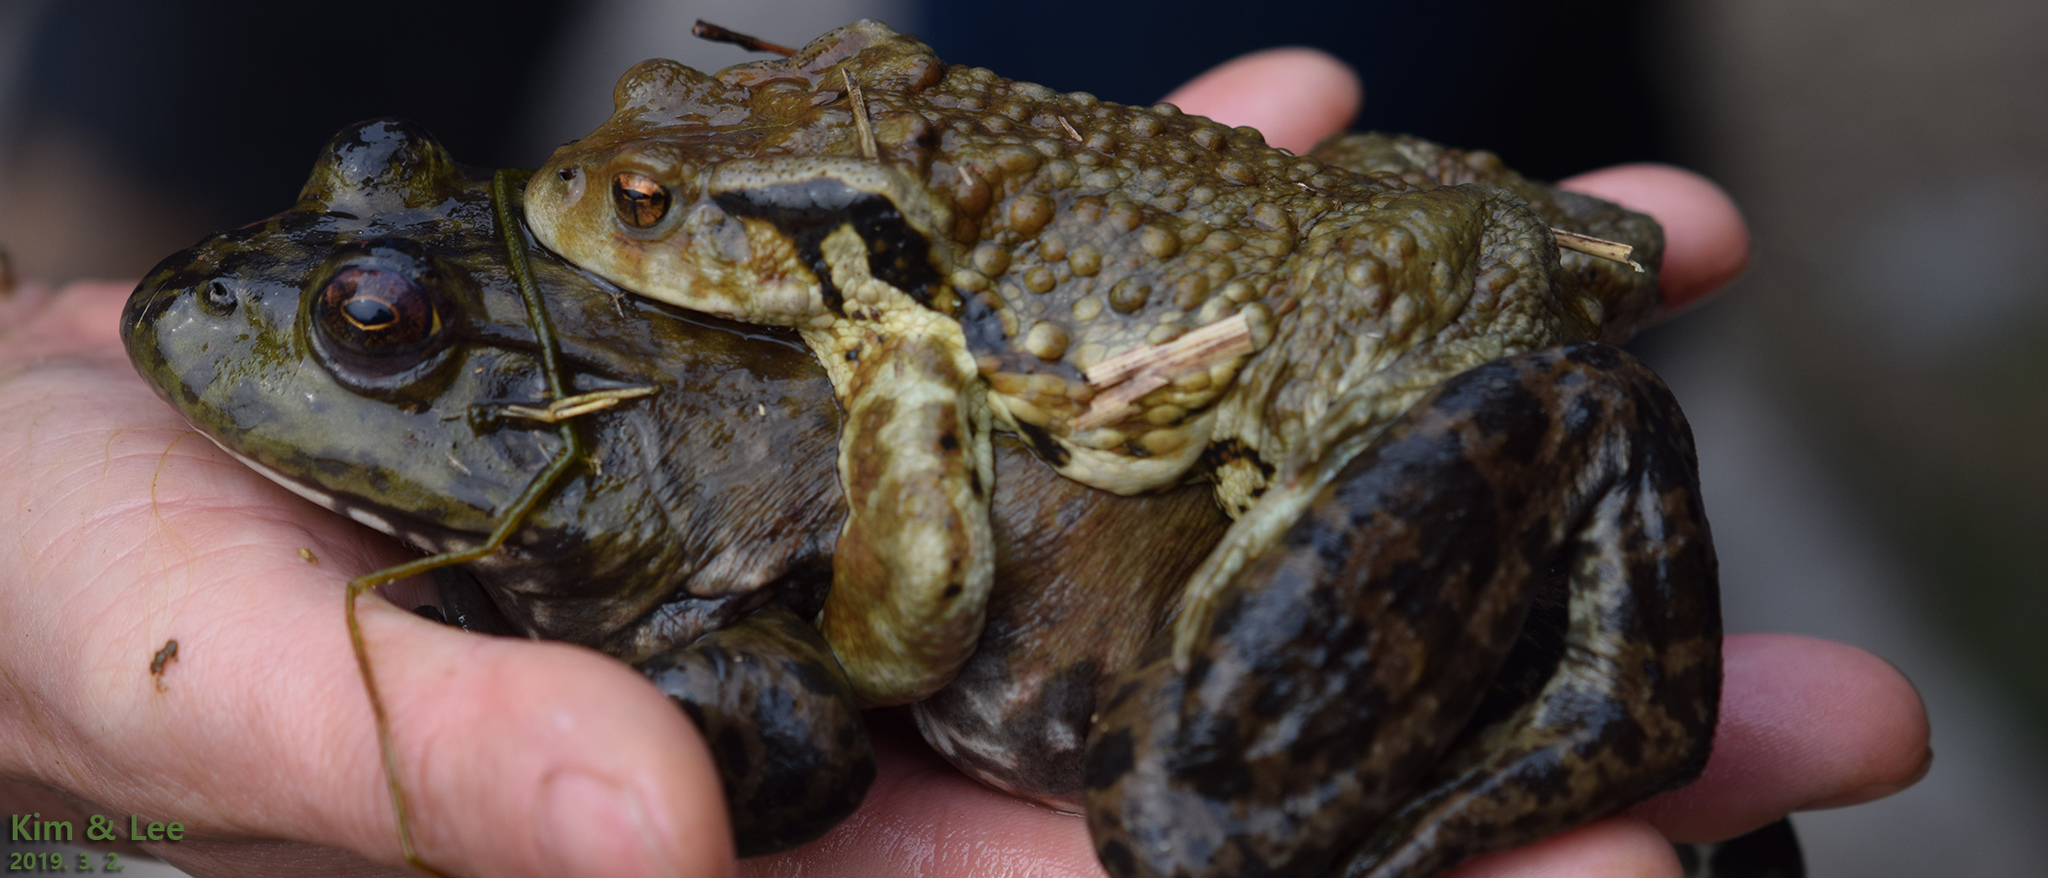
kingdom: Animalia
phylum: Chordata
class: Amphibia
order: Anura
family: Bufonidae
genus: Bufo
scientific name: Bufo gargarizans
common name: Asiatic toad
